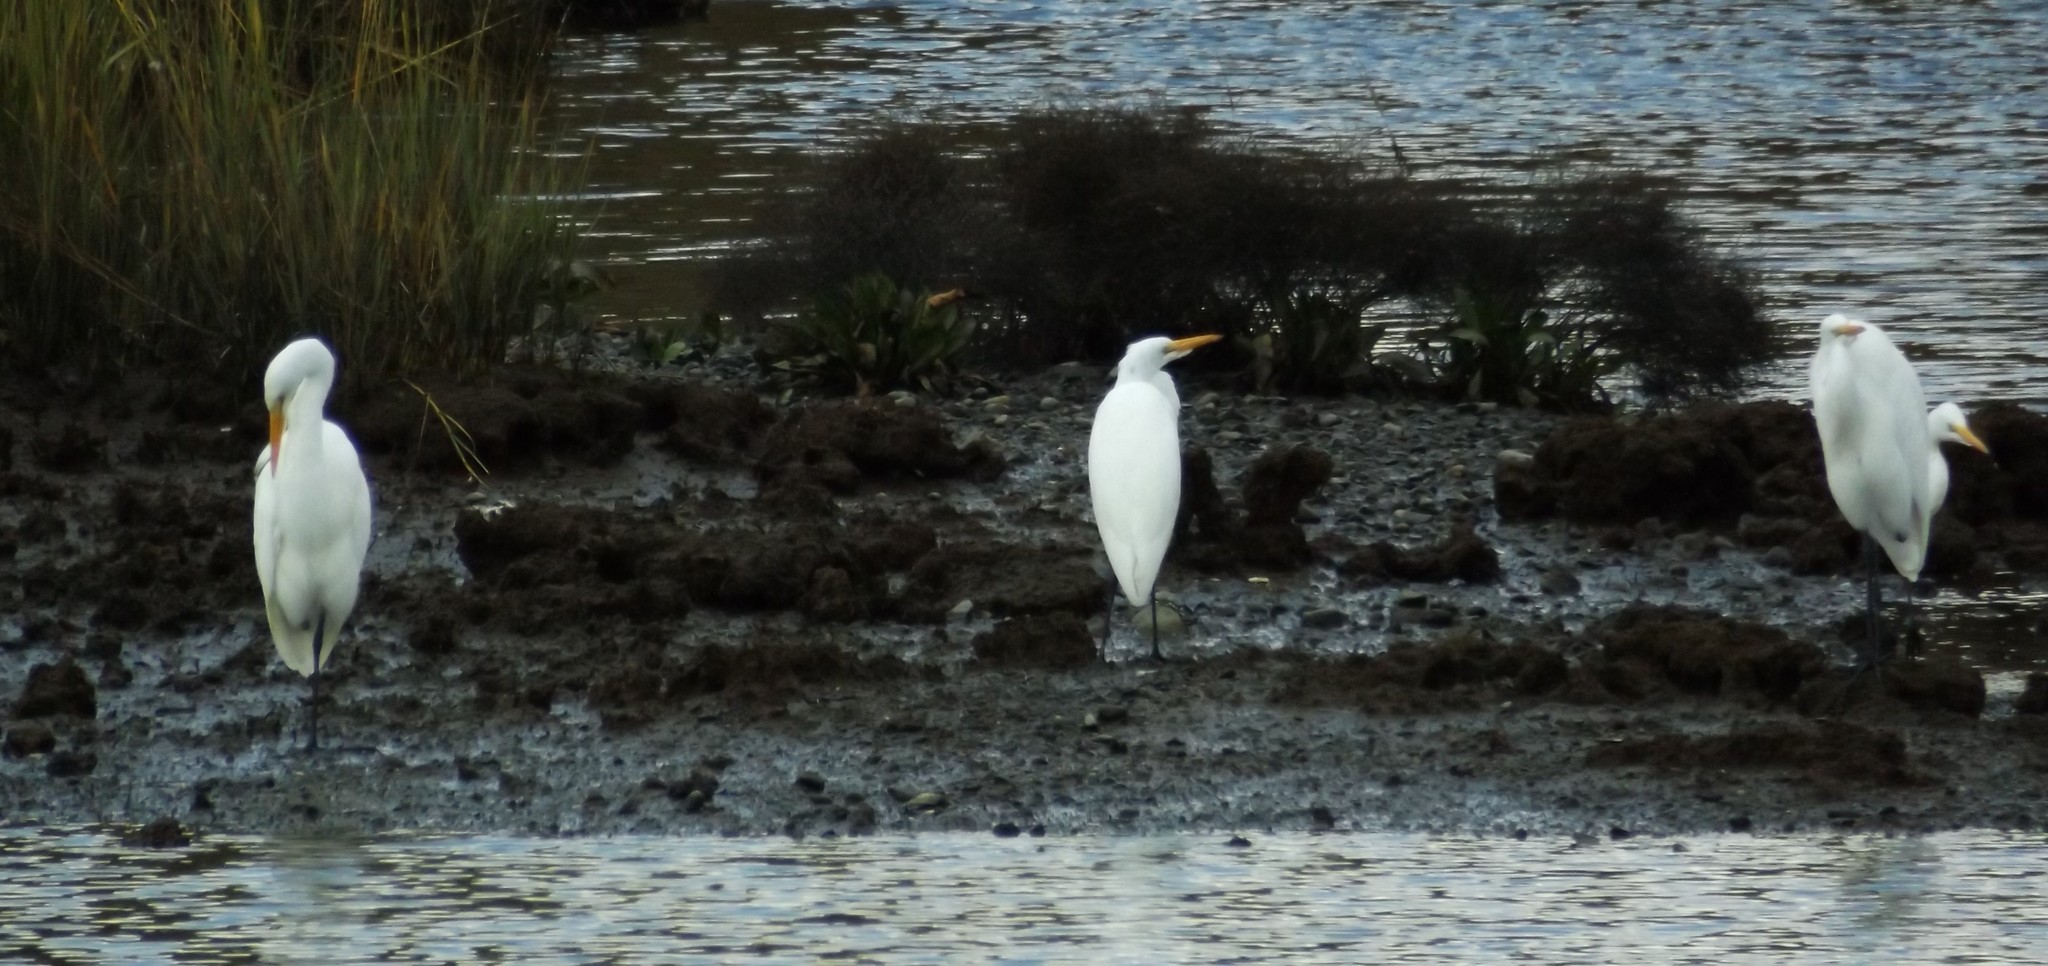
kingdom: Animalia
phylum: Chordata
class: Aves
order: Pelecaniformes
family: Ardeidae
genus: Ardea
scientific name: Ardea alba
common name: Great egret
